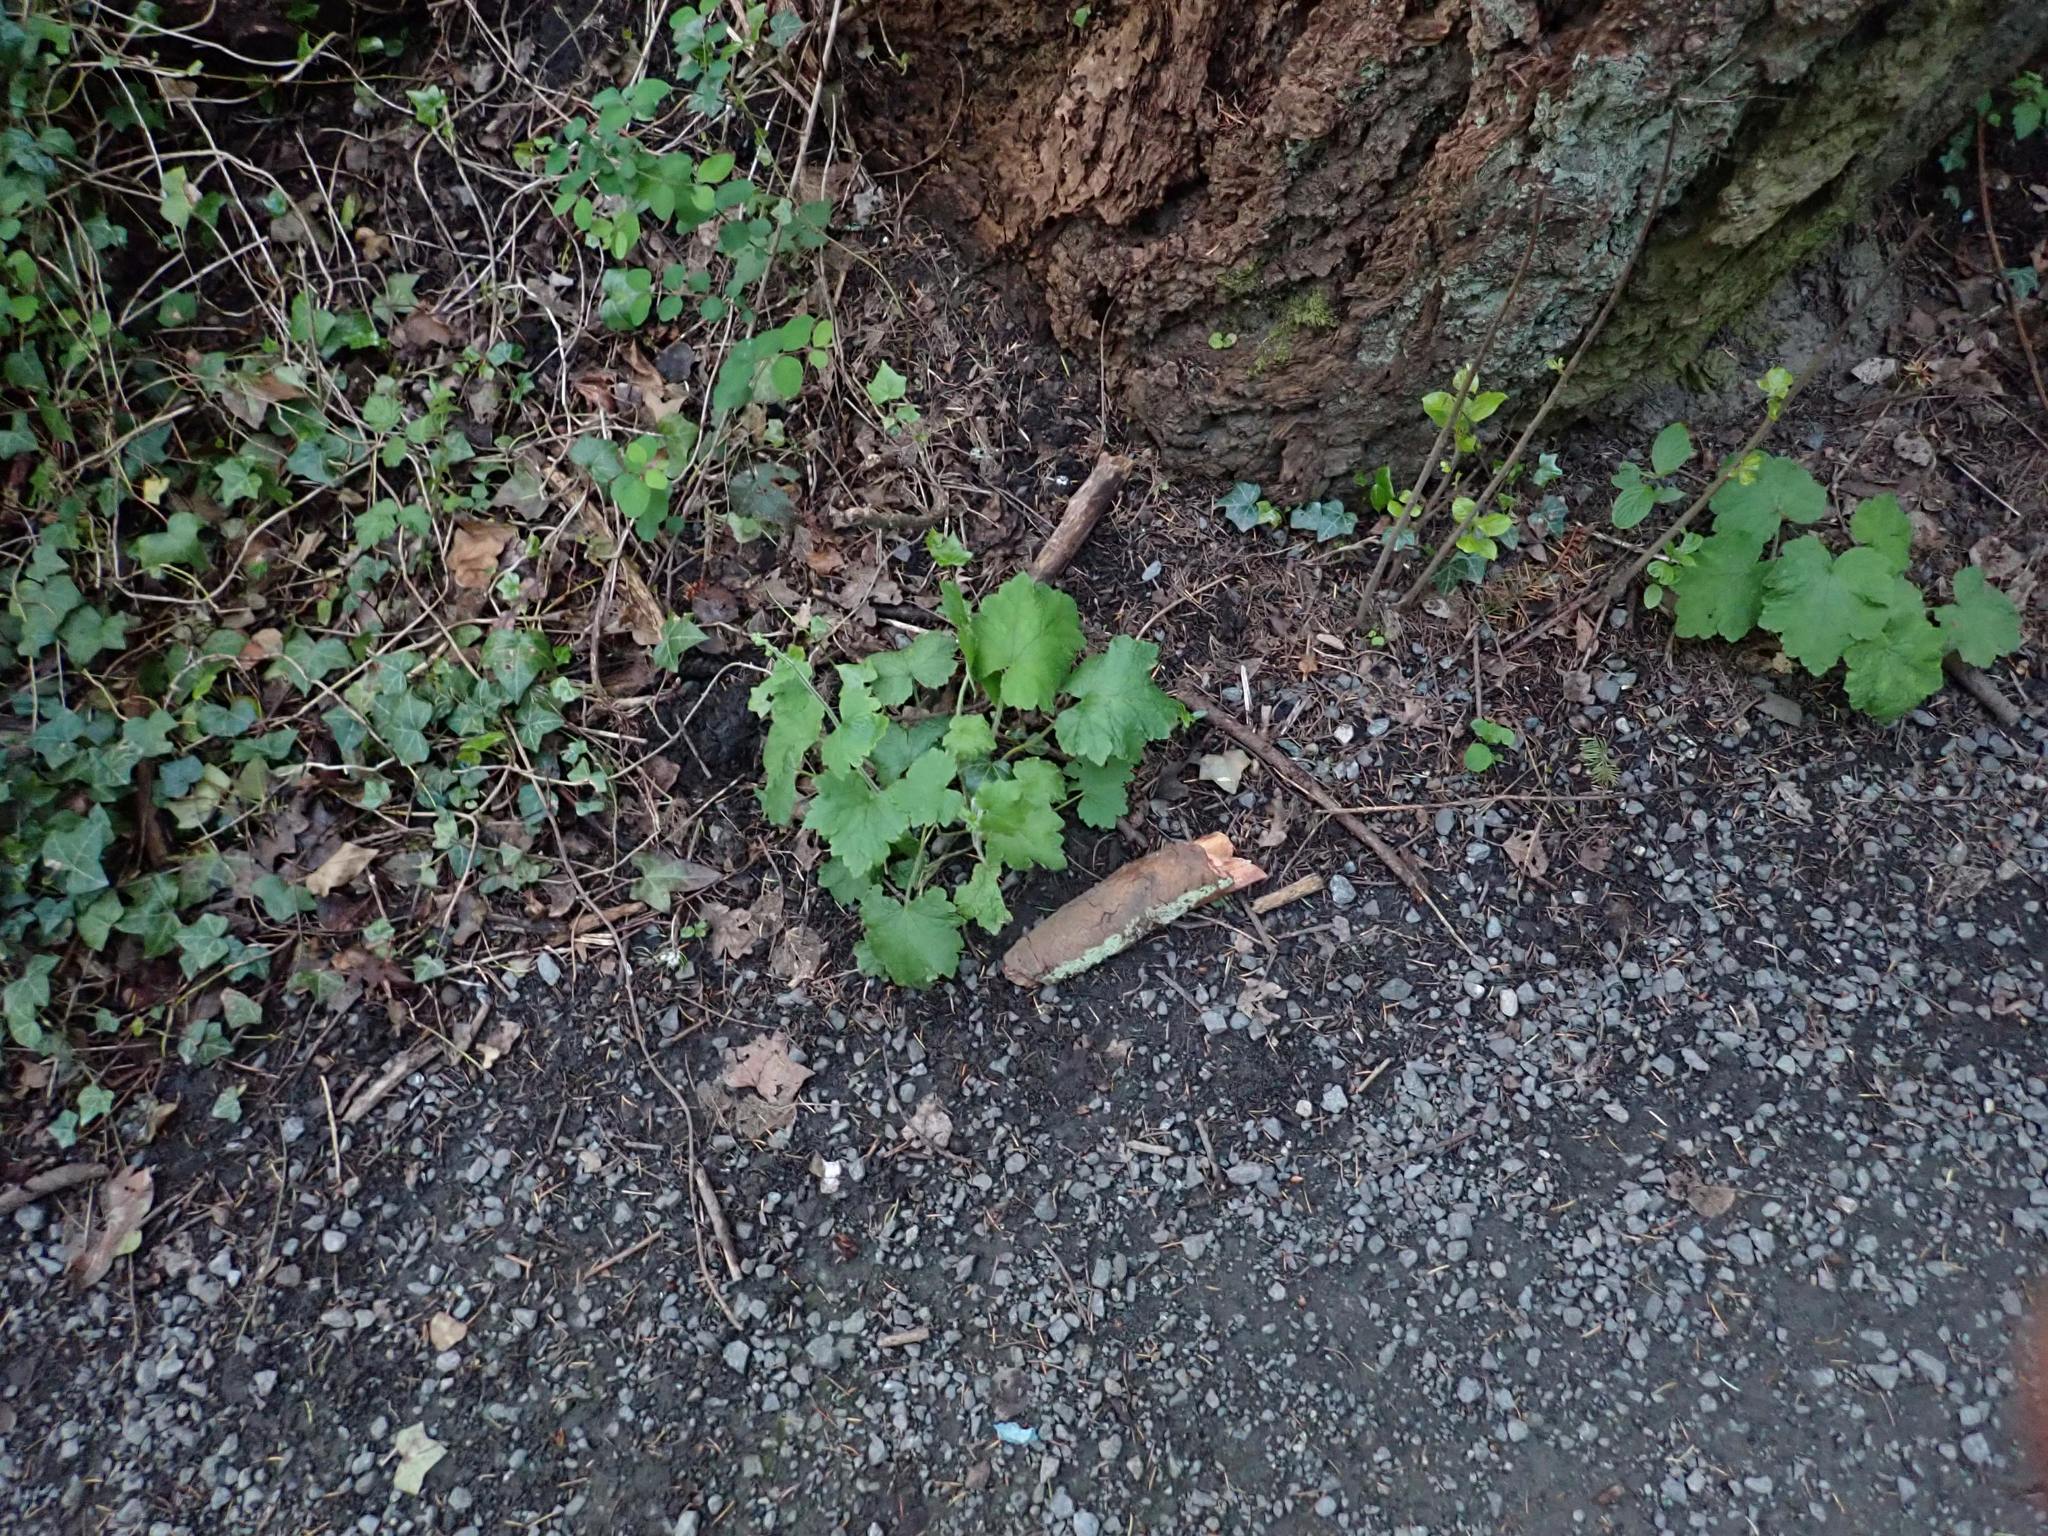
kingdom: Plantae
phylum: Tracheophyta
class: Magnoliopsida
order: Saxifragales
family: Saxifragaceae
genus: Tellima
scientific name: Tellima grandiflora
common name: Fringecups
